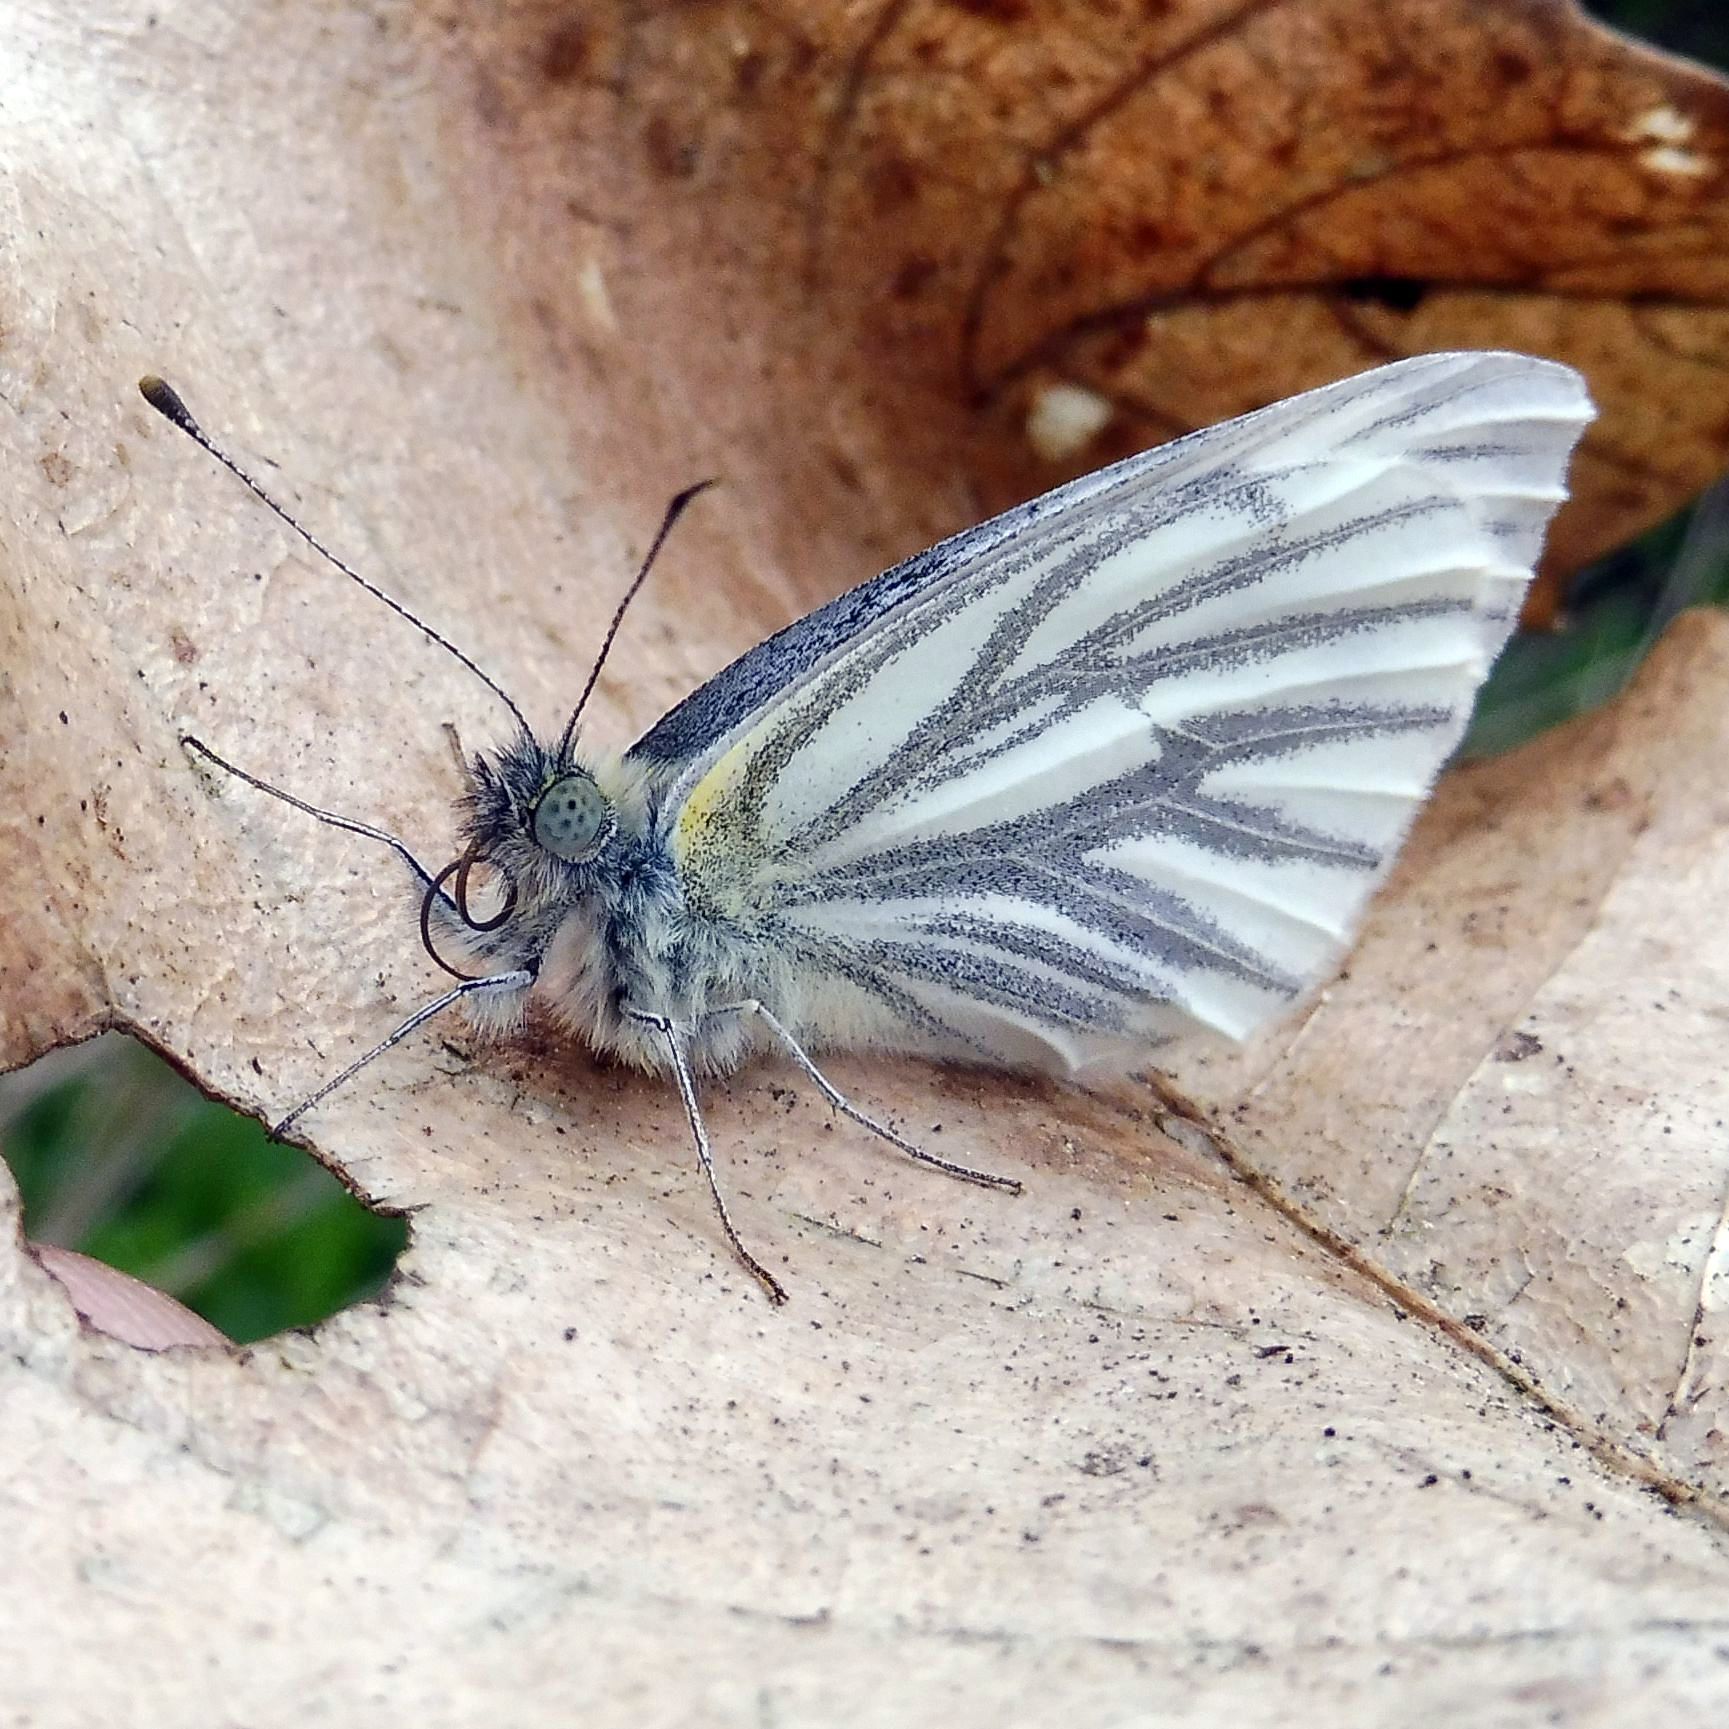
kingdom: Animalia
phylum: Arthropoda
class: Insecta
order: Lepidoptera
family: Pieridae
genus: Pieris
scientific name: Pieris napi
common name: Green-veined white
